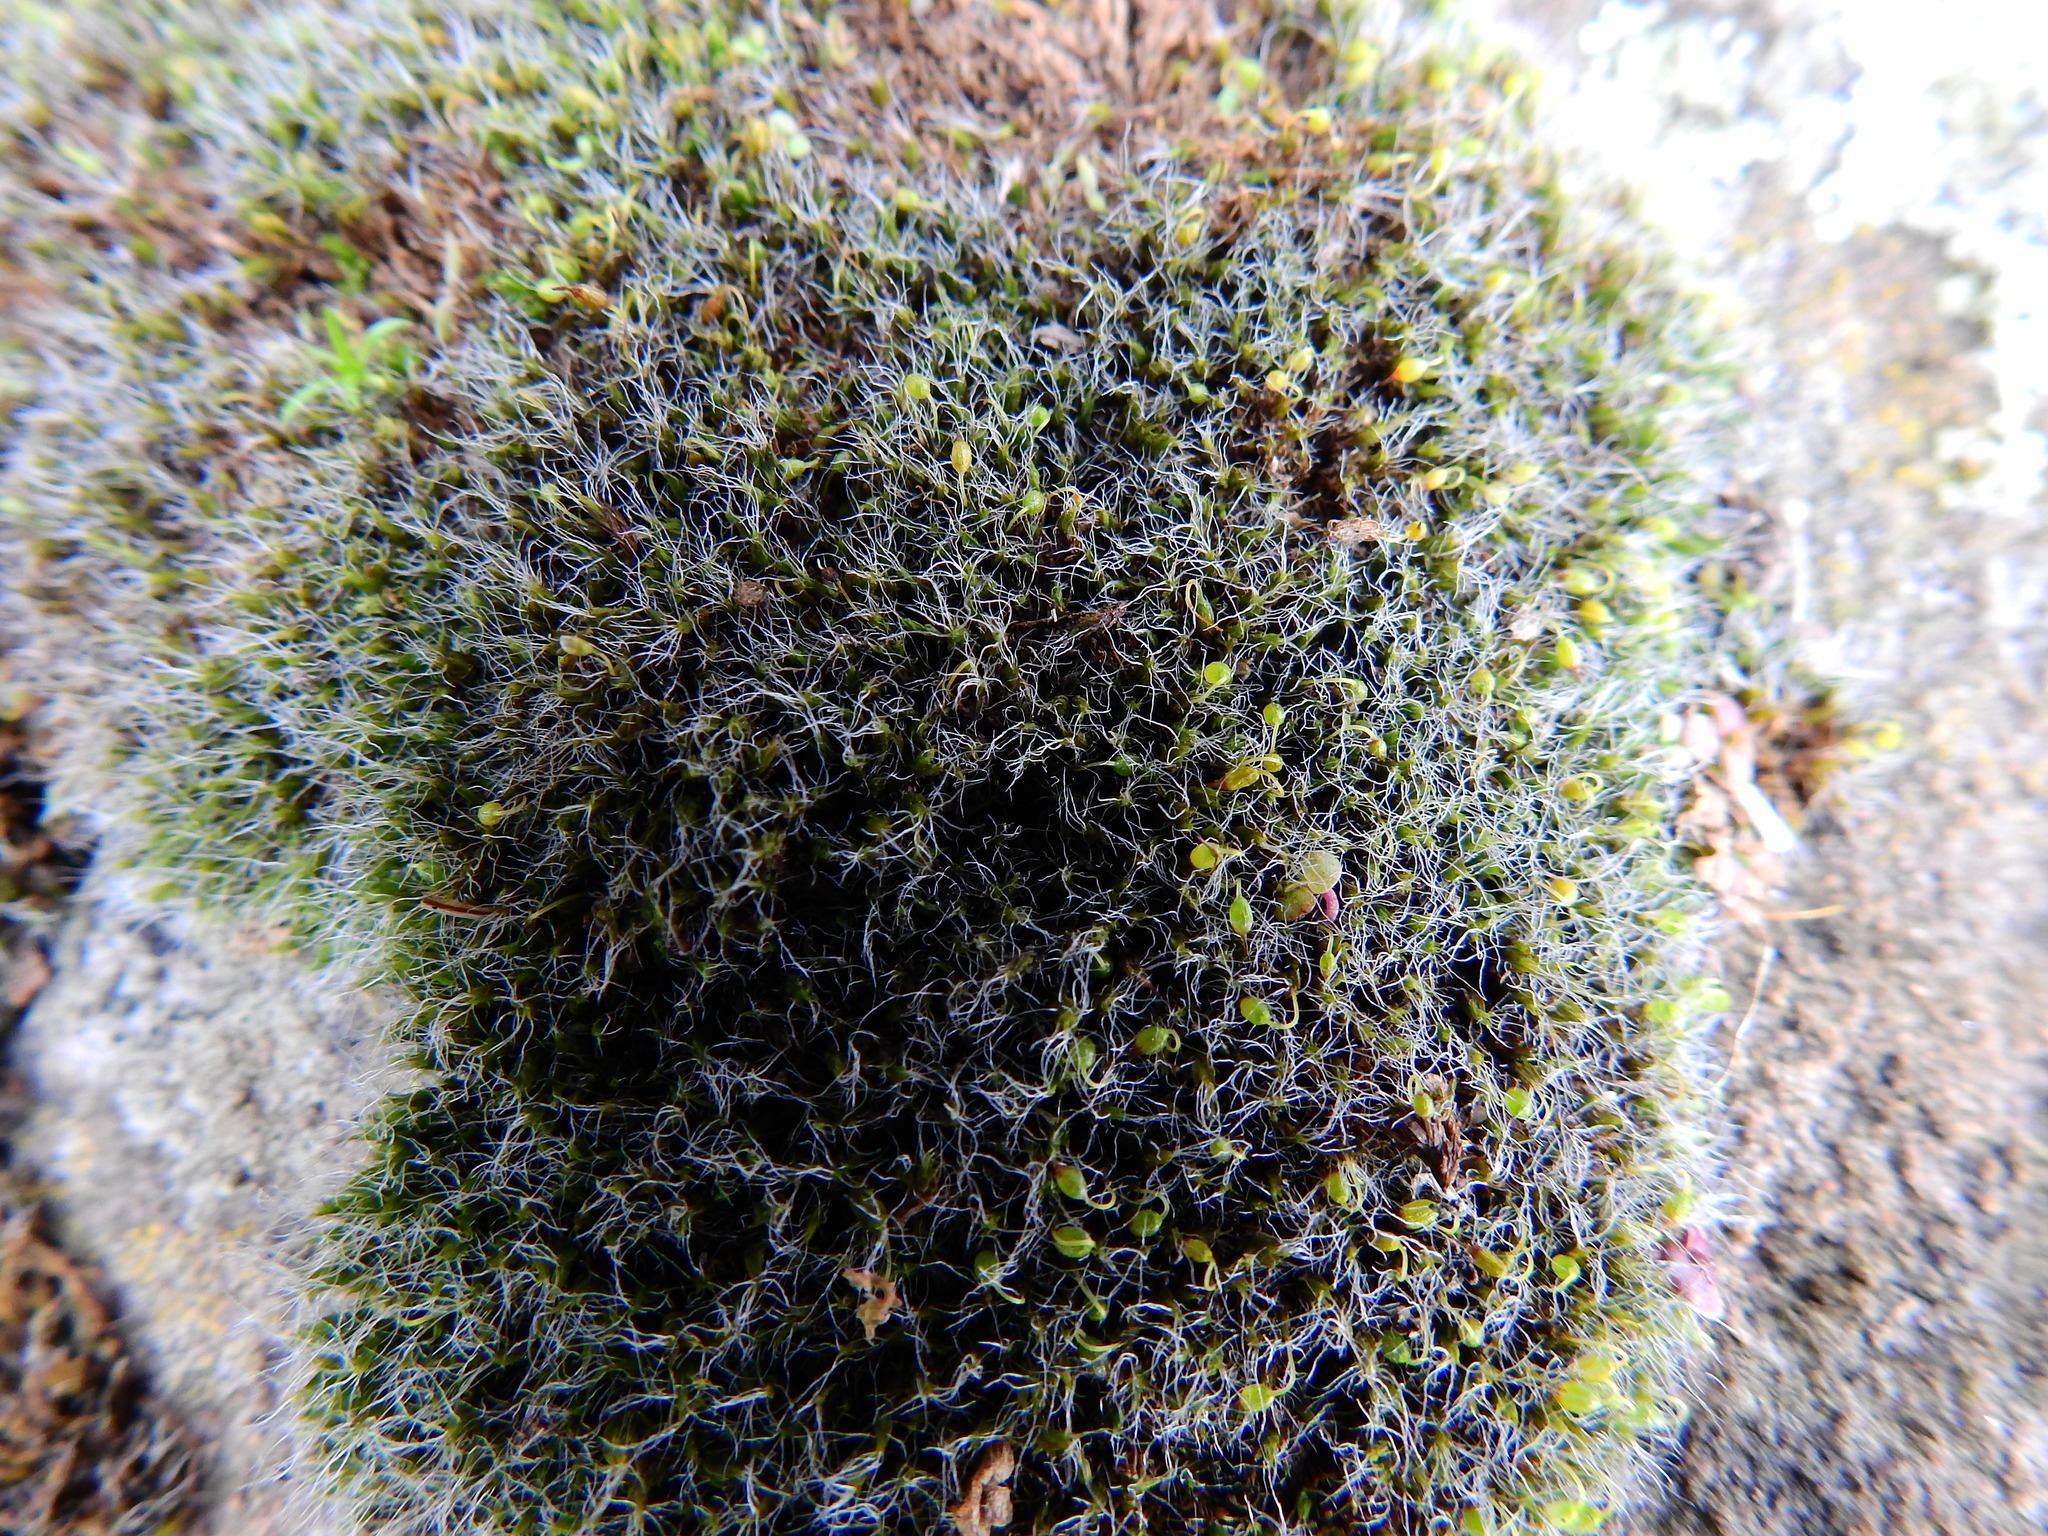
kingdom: Plantae
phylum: Bryophyta
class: Bryopsida
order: Grimmiales
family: Grimmiaceae
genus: Grimmia
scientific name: Grimmia pulvinata
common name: Grey-cushioned grimmia
